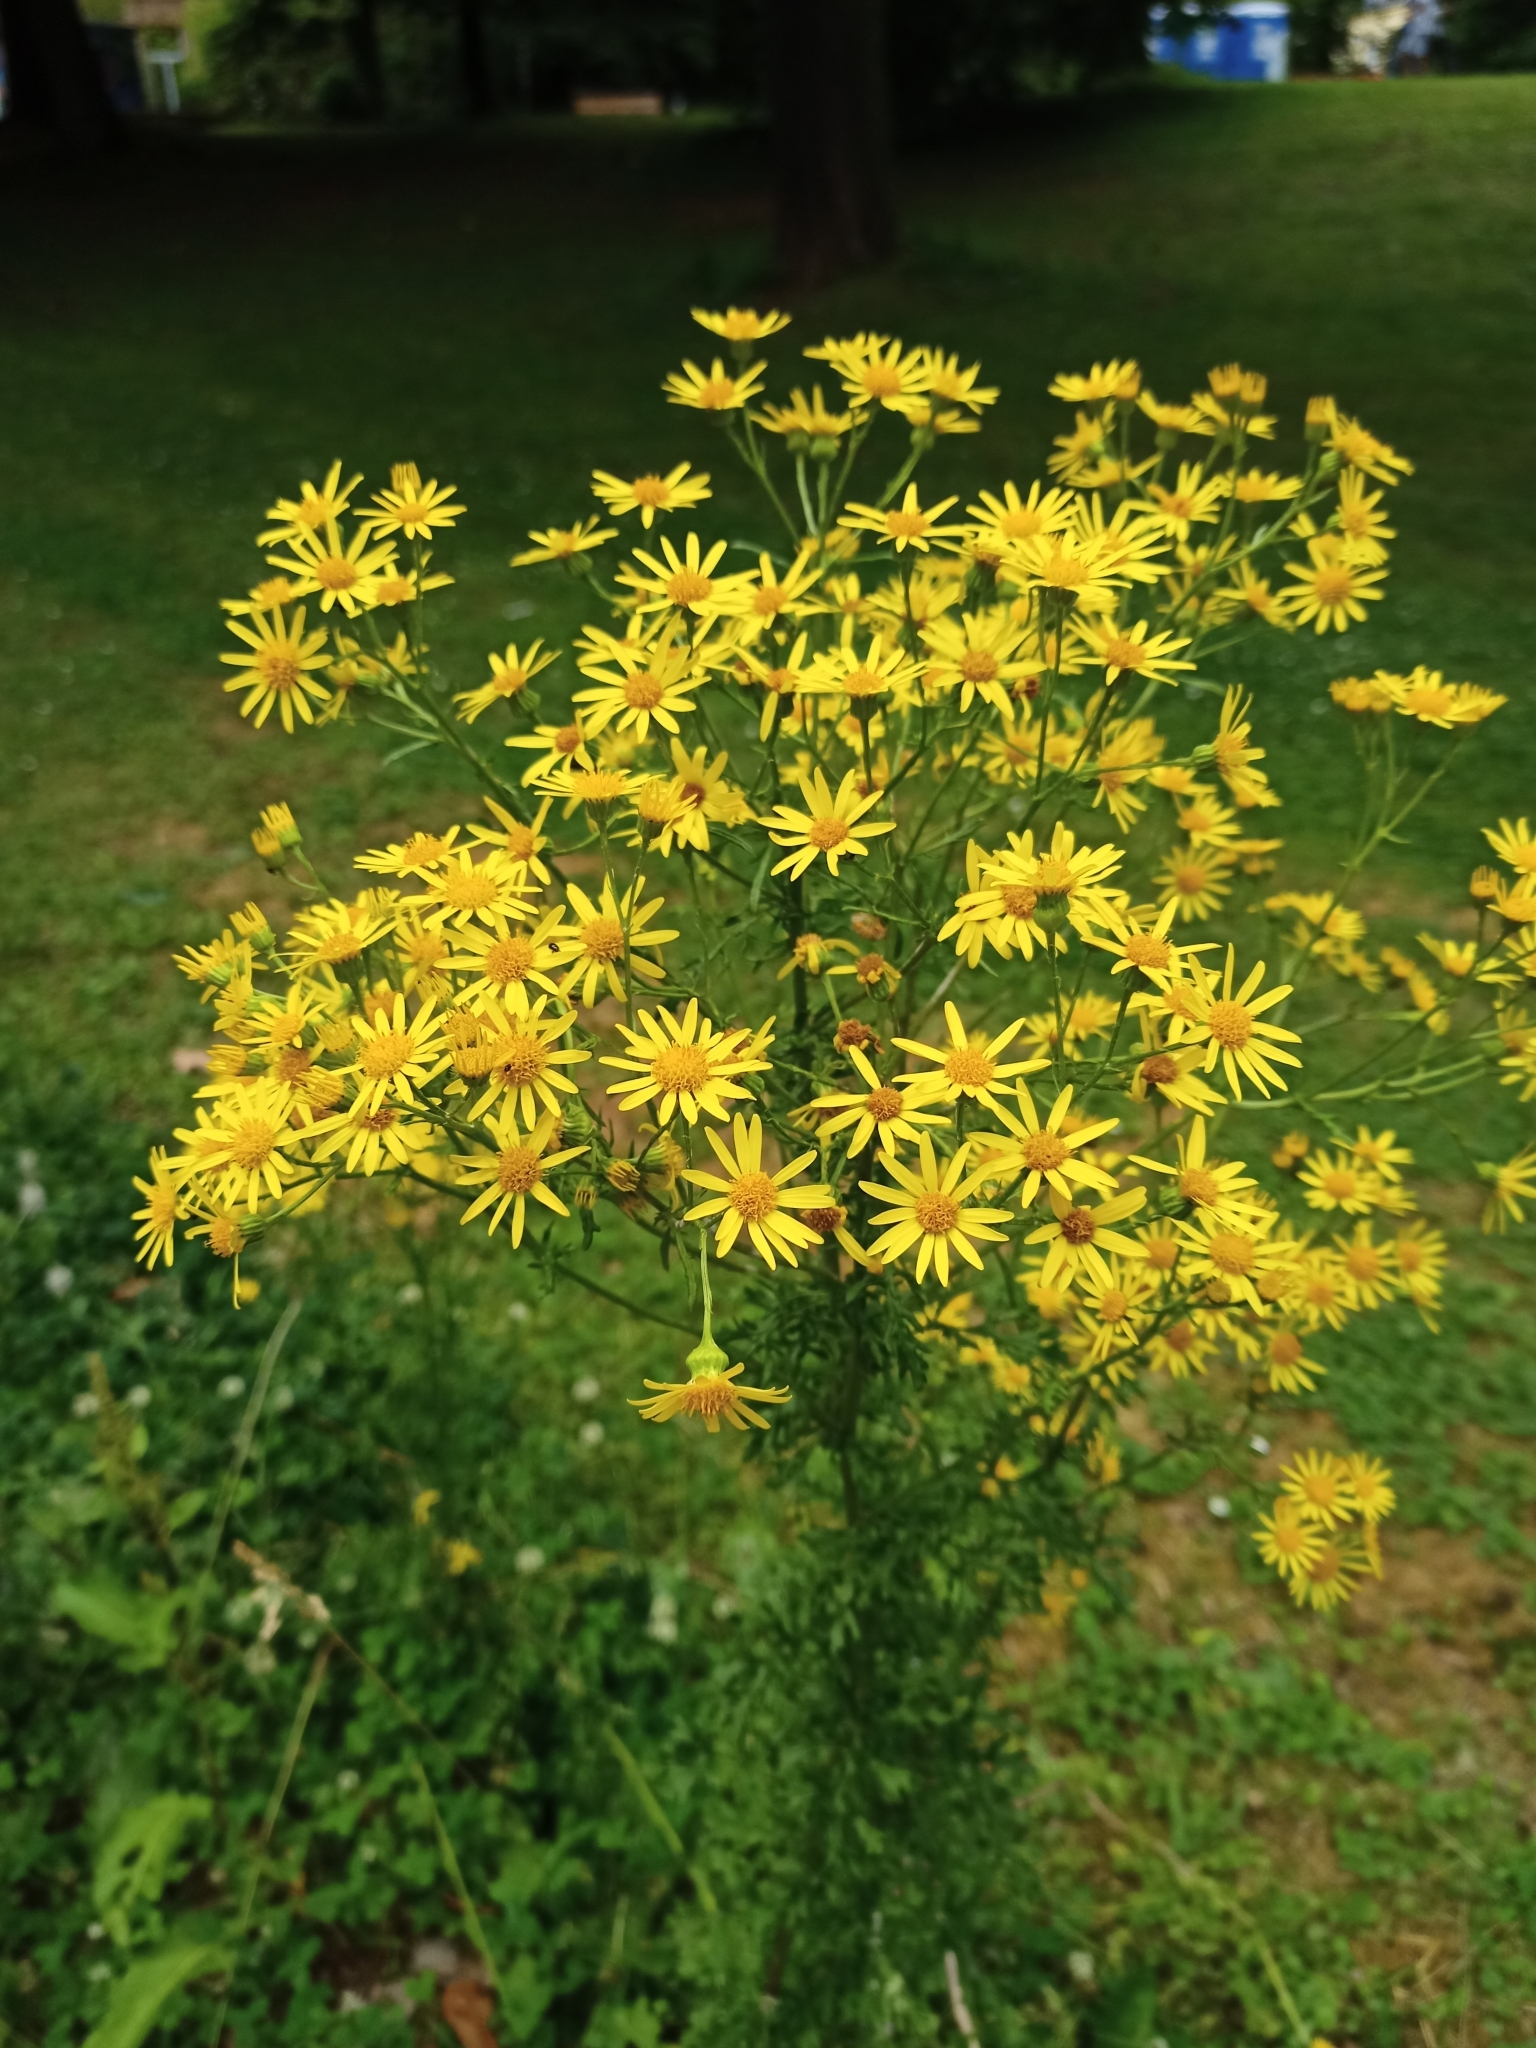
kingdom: Plantae
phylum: Tracheophyta
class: Magnoliopsida
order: Asterales
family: Asteraceae
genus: Jacobaea
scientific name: Jacobaea vulgaris
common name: Stinking willie
